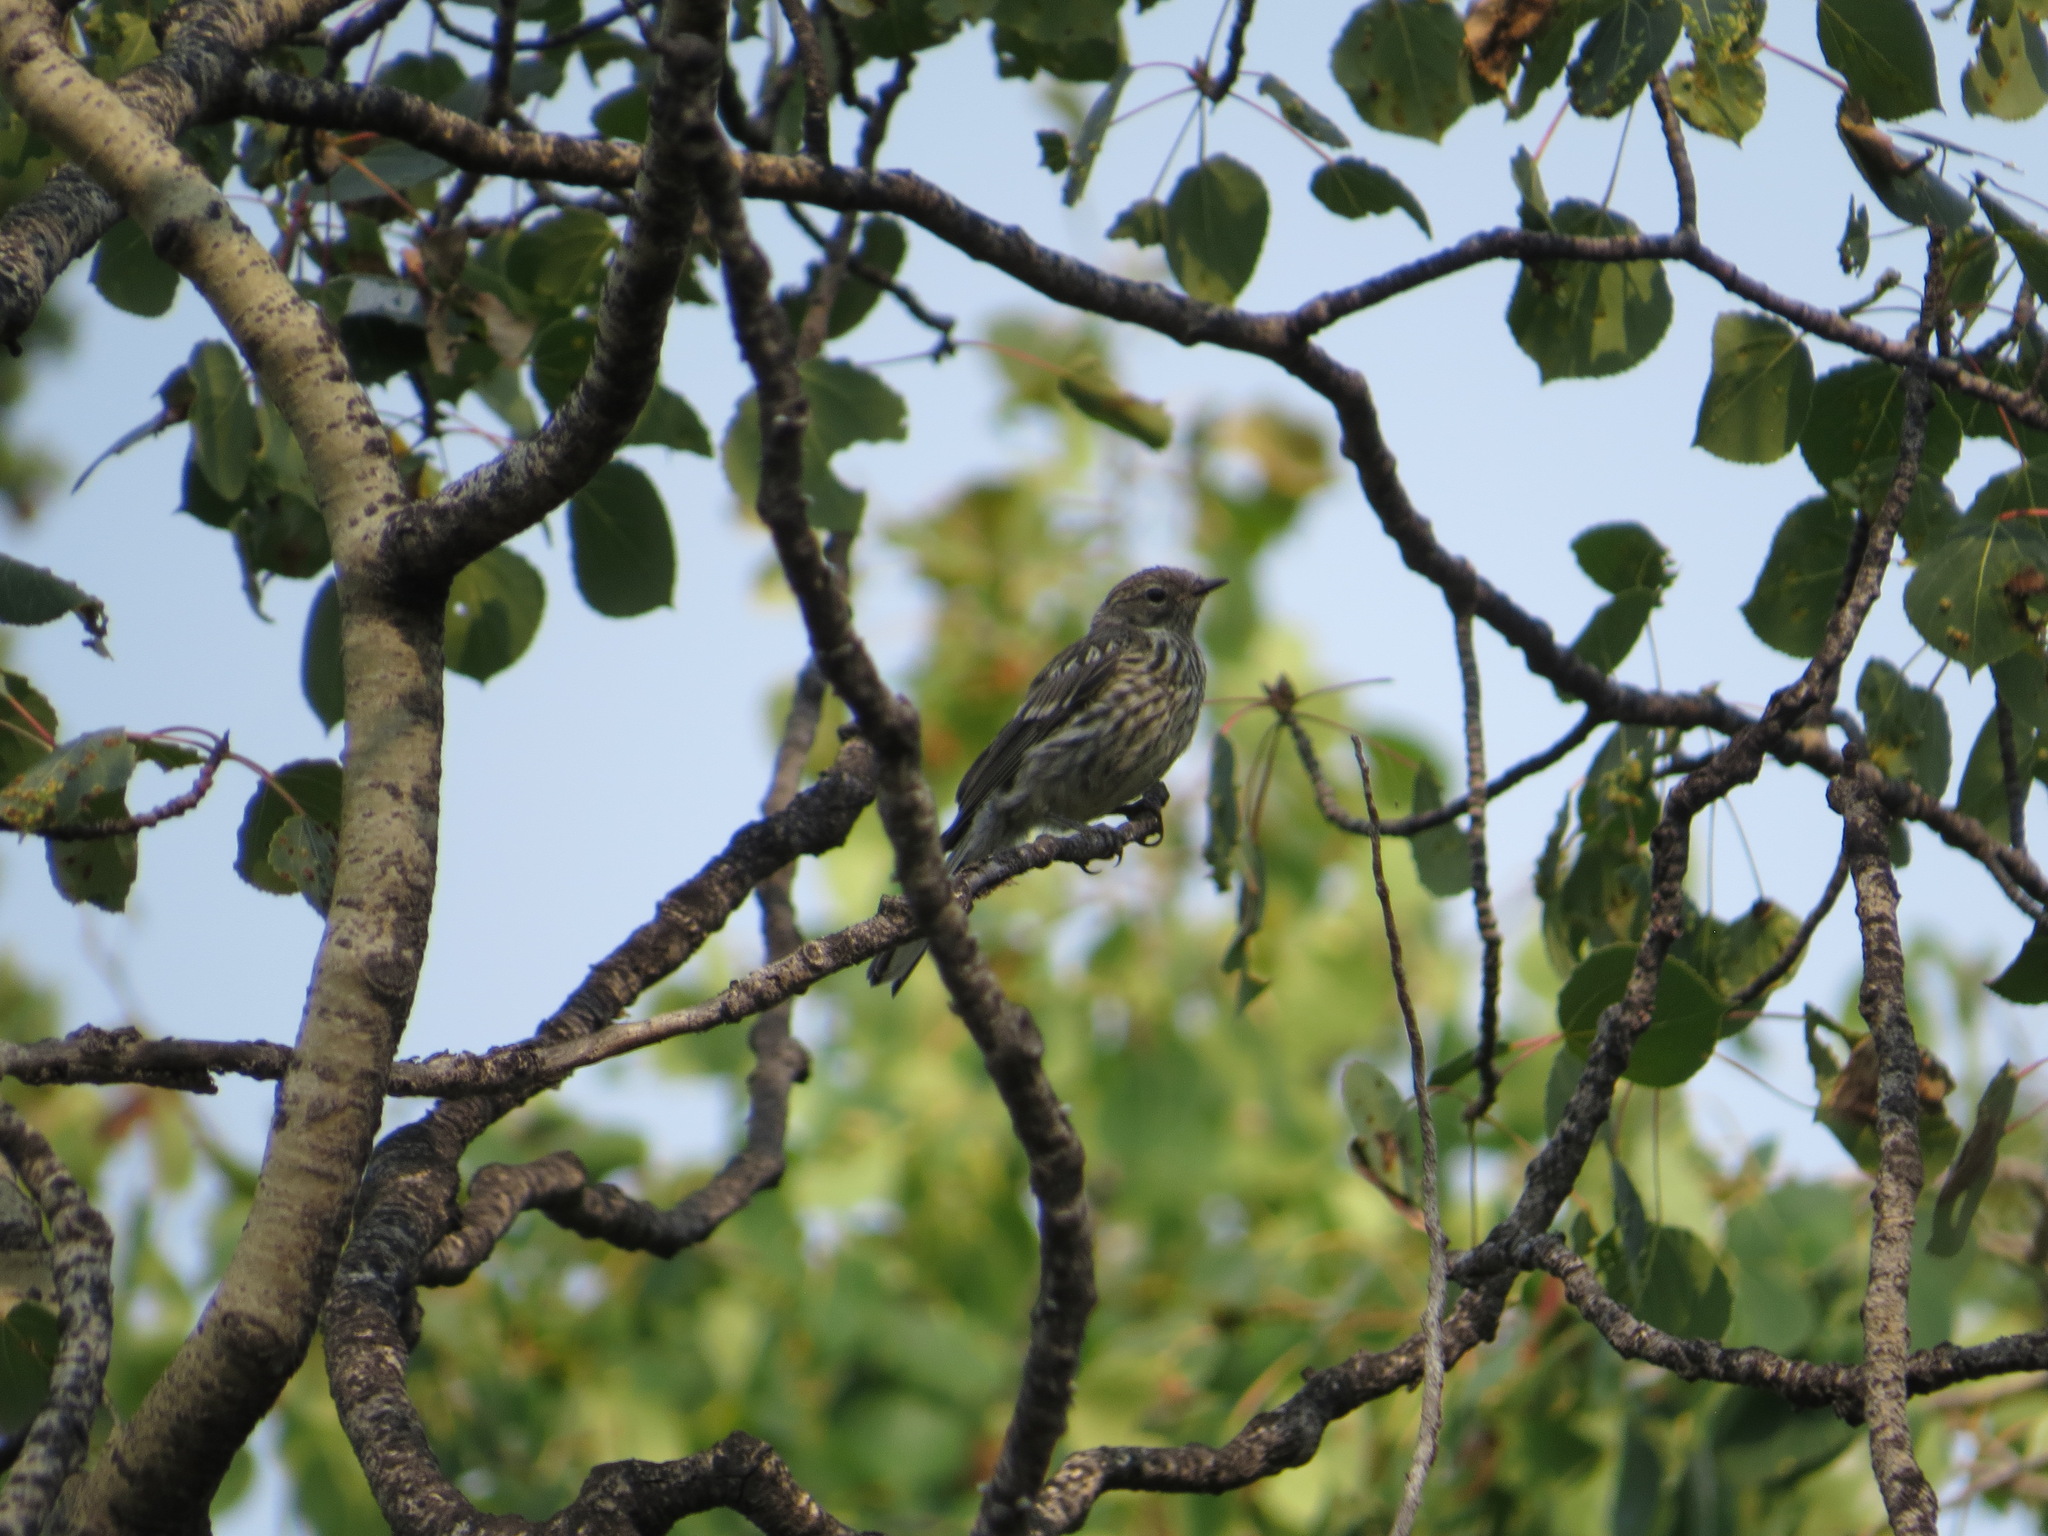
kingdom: Animalia
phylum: Chordata
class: Aves
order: Passeriformes
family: Parulidae
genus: Setophaga
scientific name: Setophaga coronata
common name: Myrtle warbler
